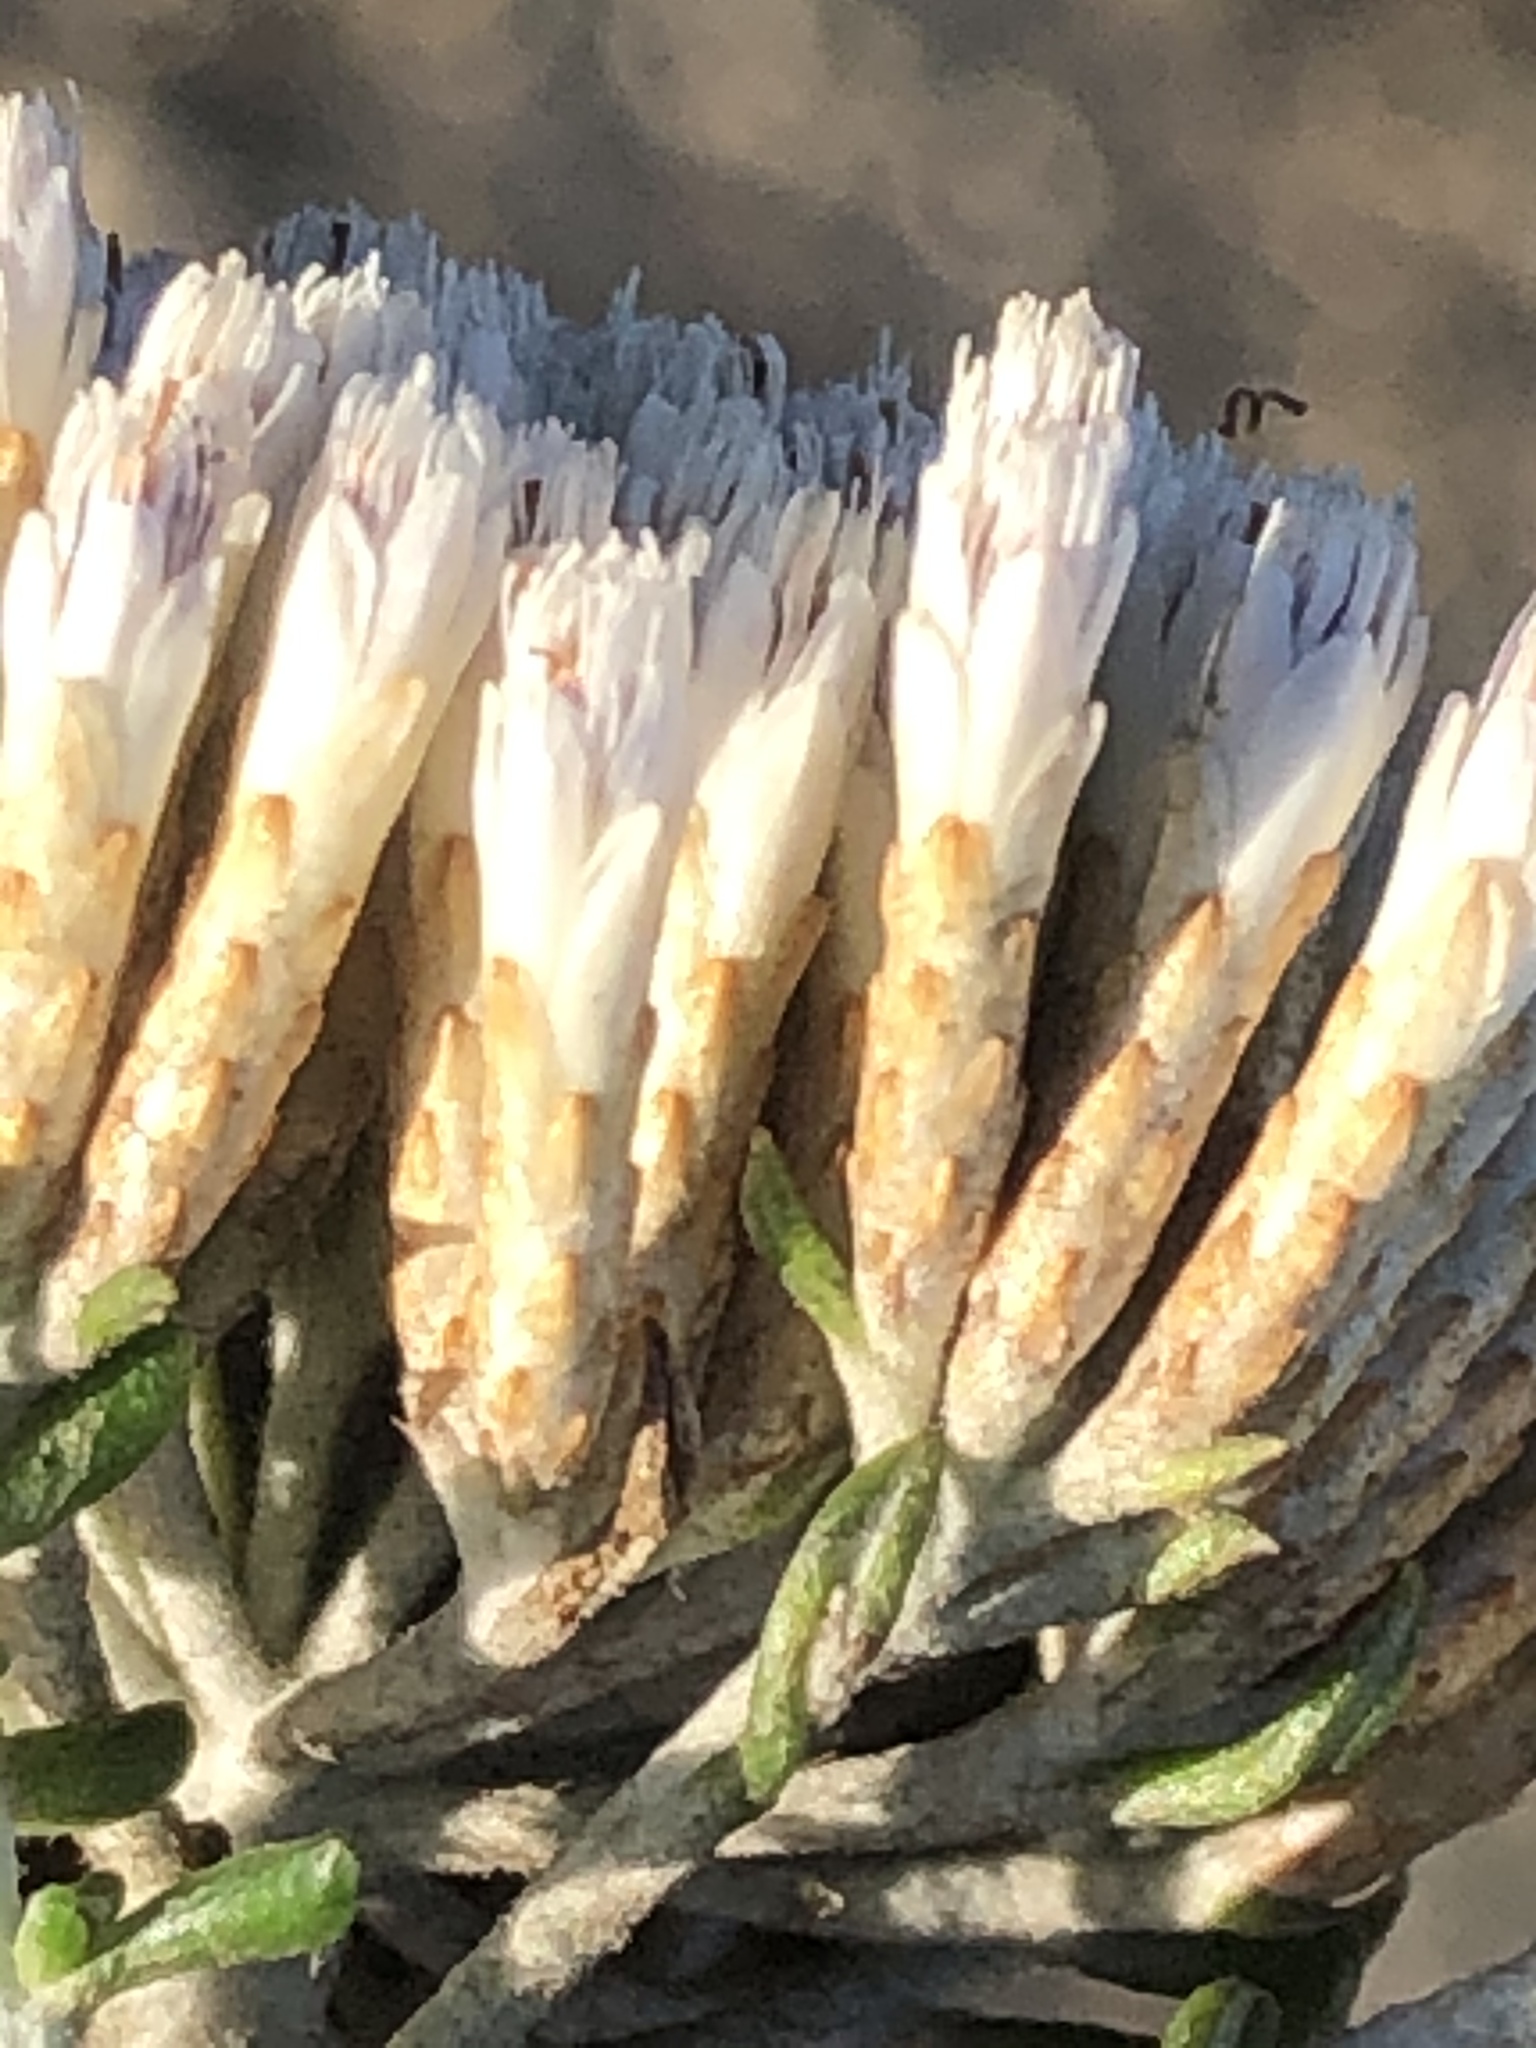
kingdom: Plantae
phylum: Tracheophyta
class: Magnoliopsida
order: Asterales
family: Asteraceae
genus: Metalasia
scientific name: Metalasia muricata
